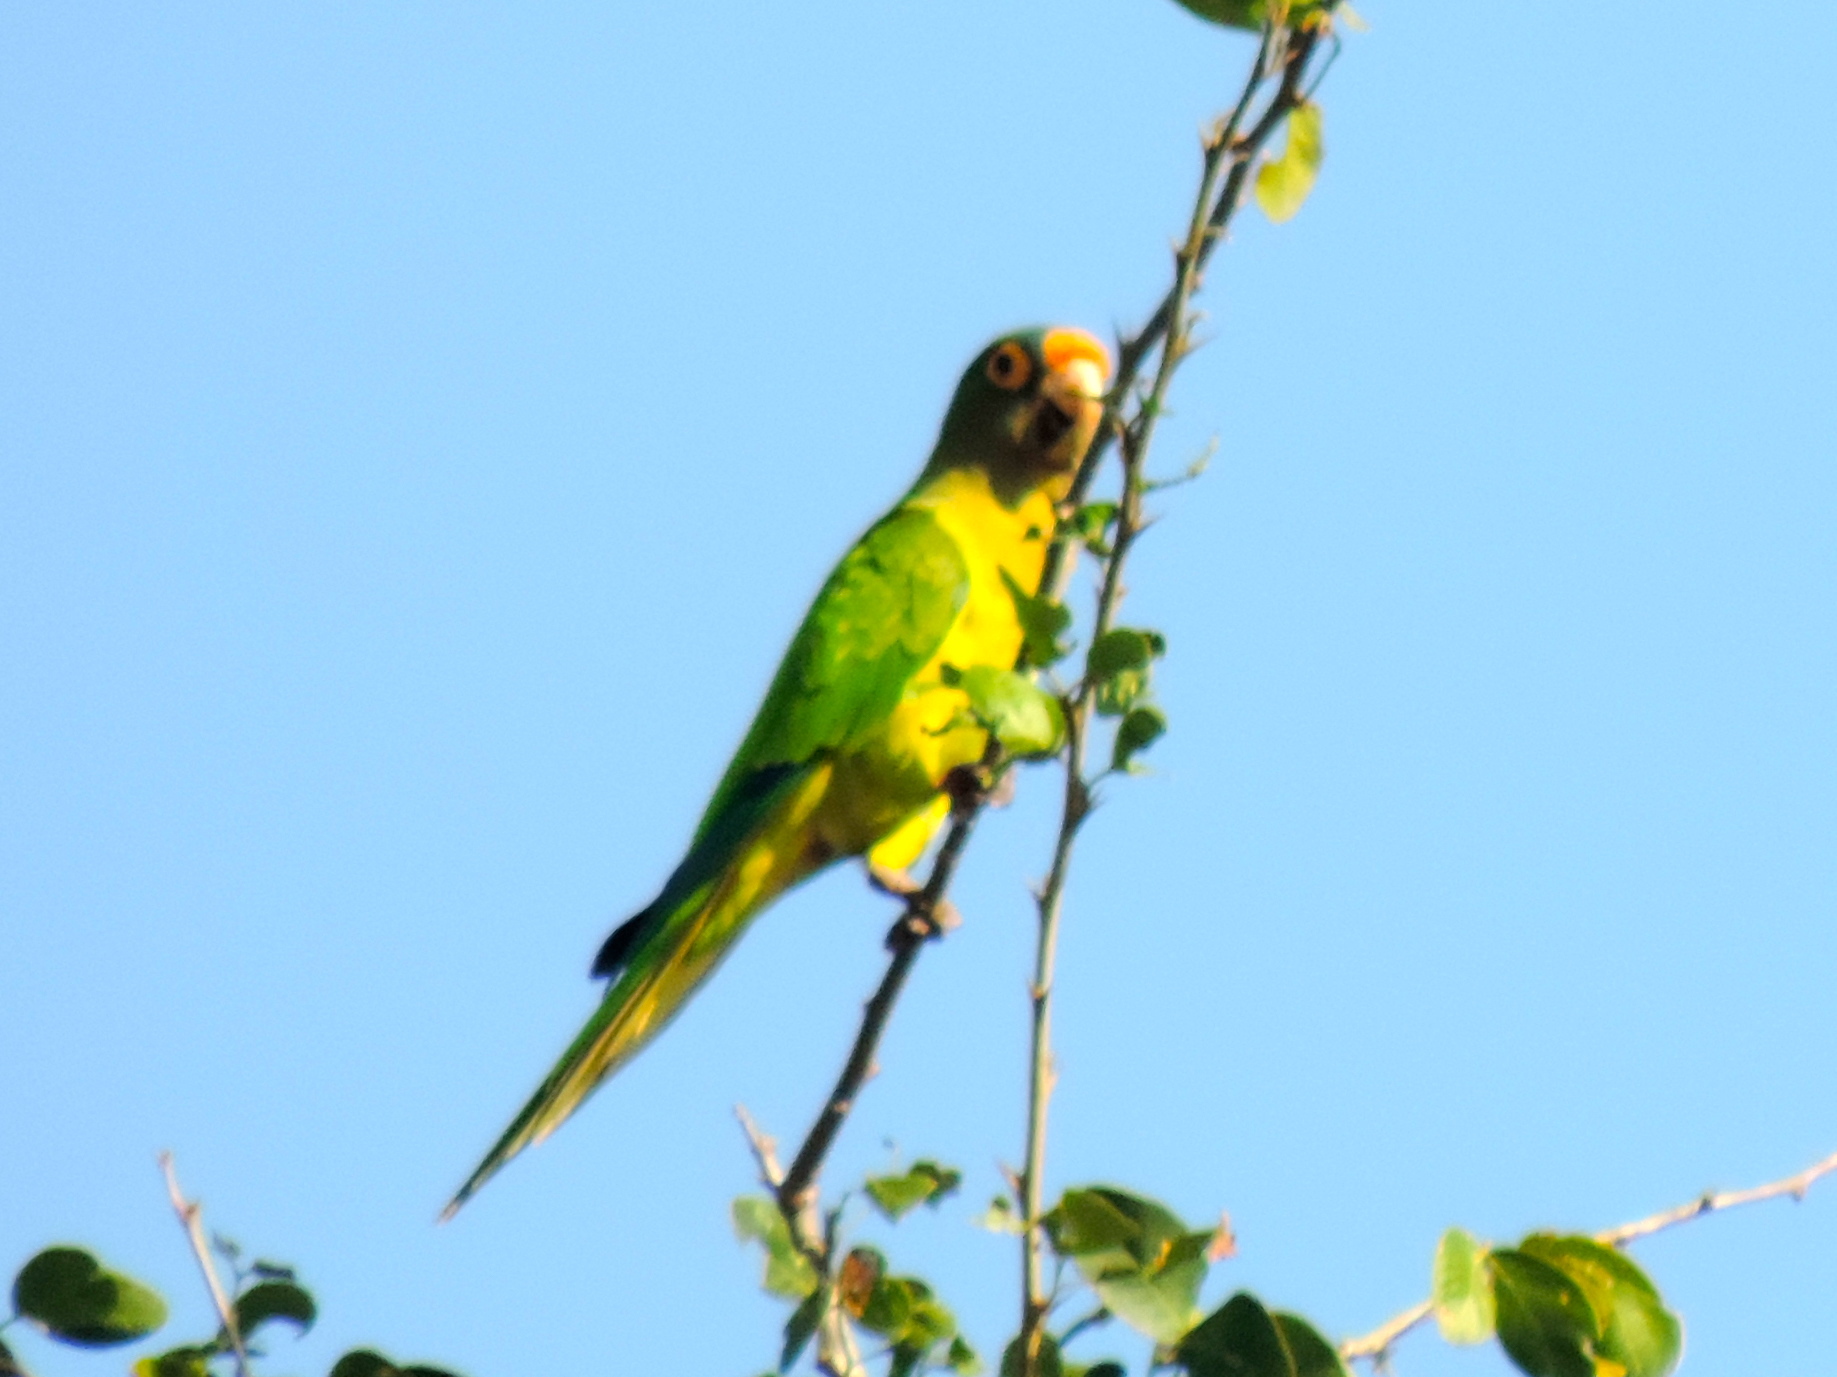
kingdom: Animalia
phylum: Chordata
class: Aves
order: Psittaciformes
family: Psittacidae
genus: Aratinga
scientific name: Aratinga canicularis
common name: Orange-fronted parakeet
